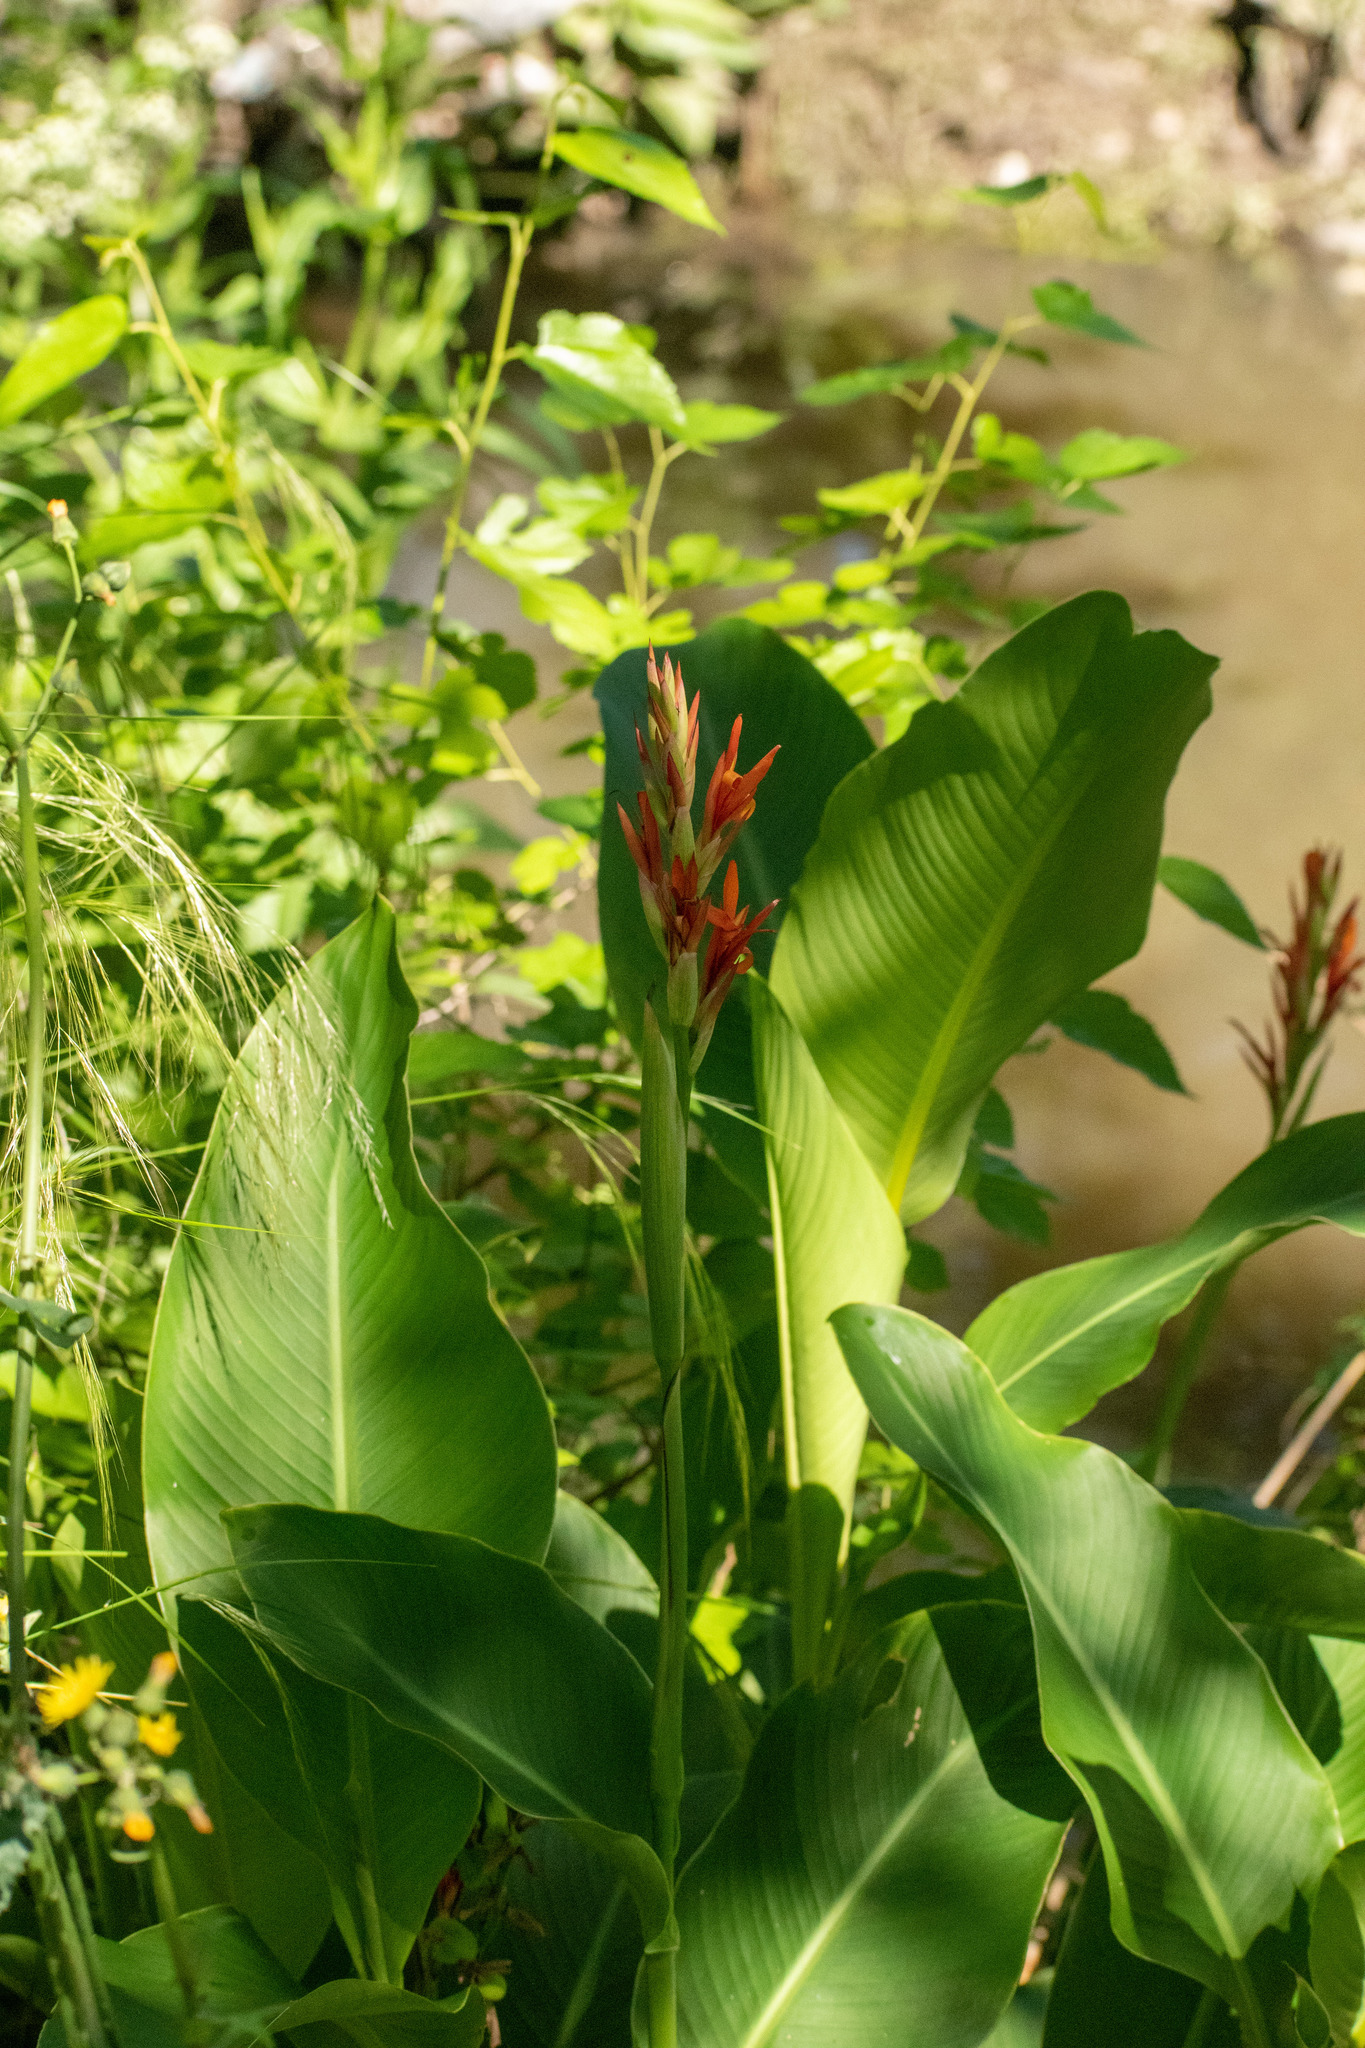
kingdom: Plantae
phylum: Tracheophyta
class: Liliopsida
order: Zingiberales
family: Cannaceae
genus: Canna
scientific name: Canna indica
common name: Indian shot
